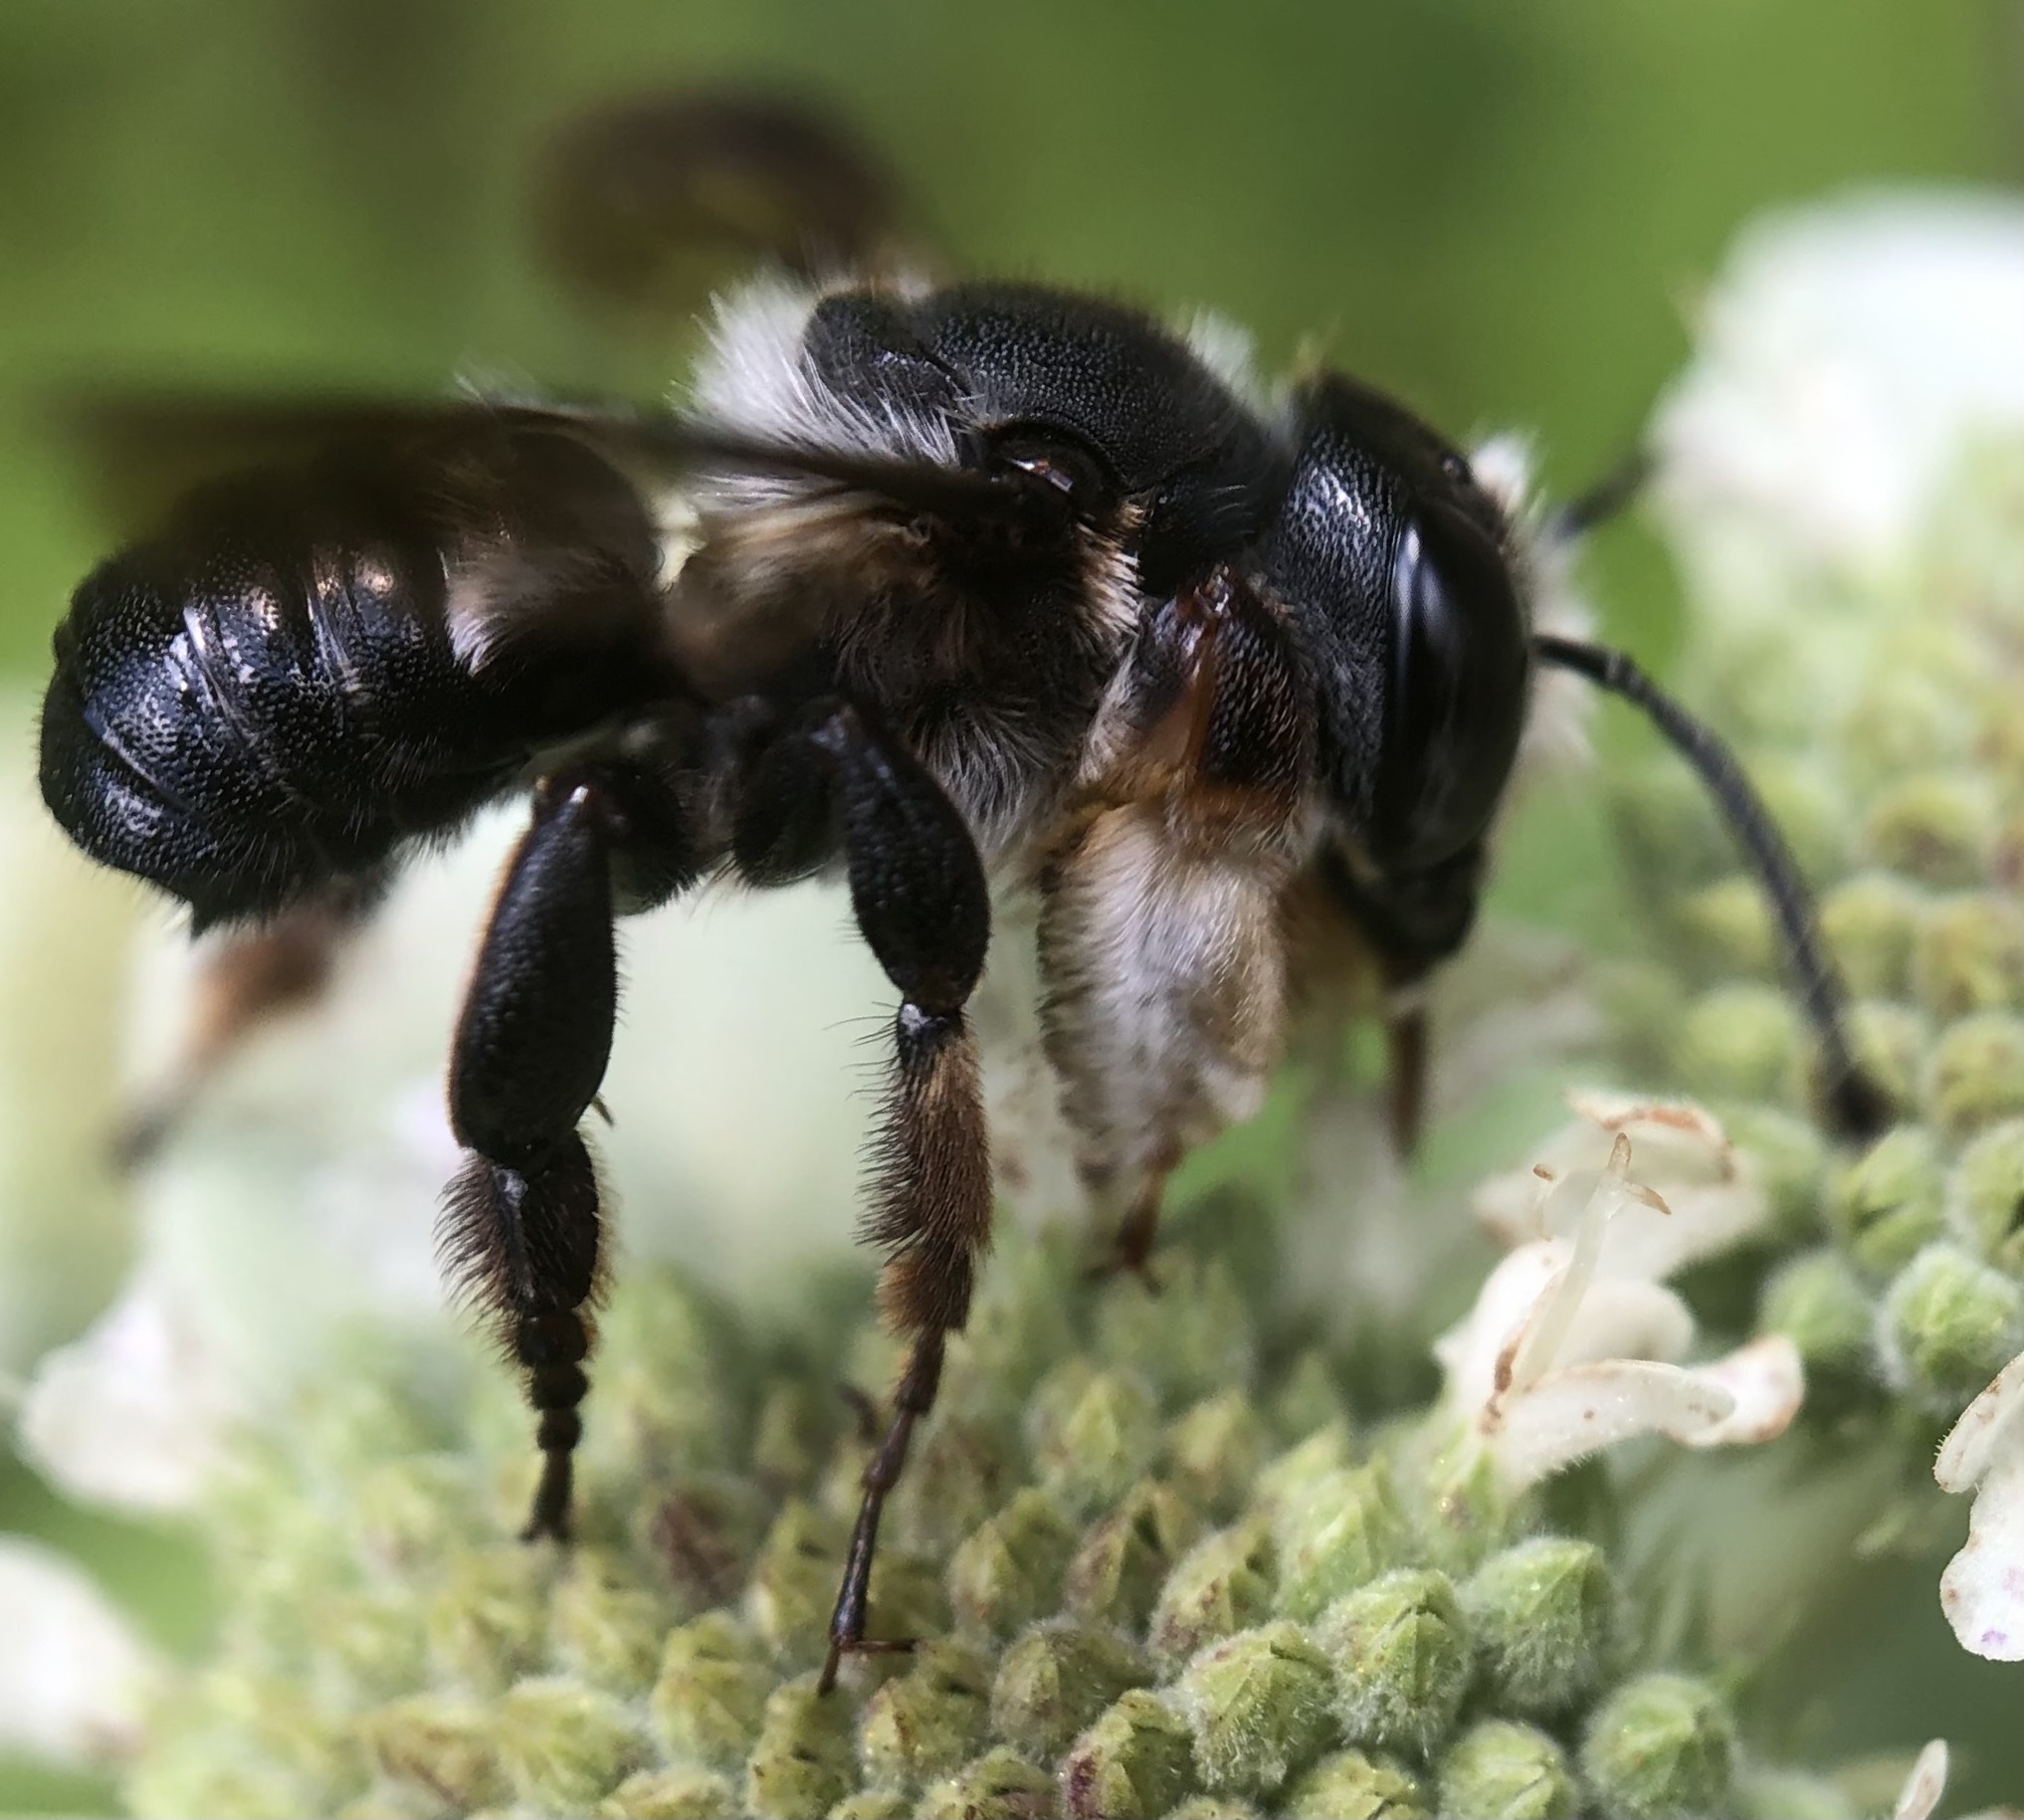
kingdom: Animalia
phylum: Arthropoda
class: Insecta
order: Hymenoptera
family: Megachilidae
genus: Megachile
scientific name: Megachile xylocopoides
